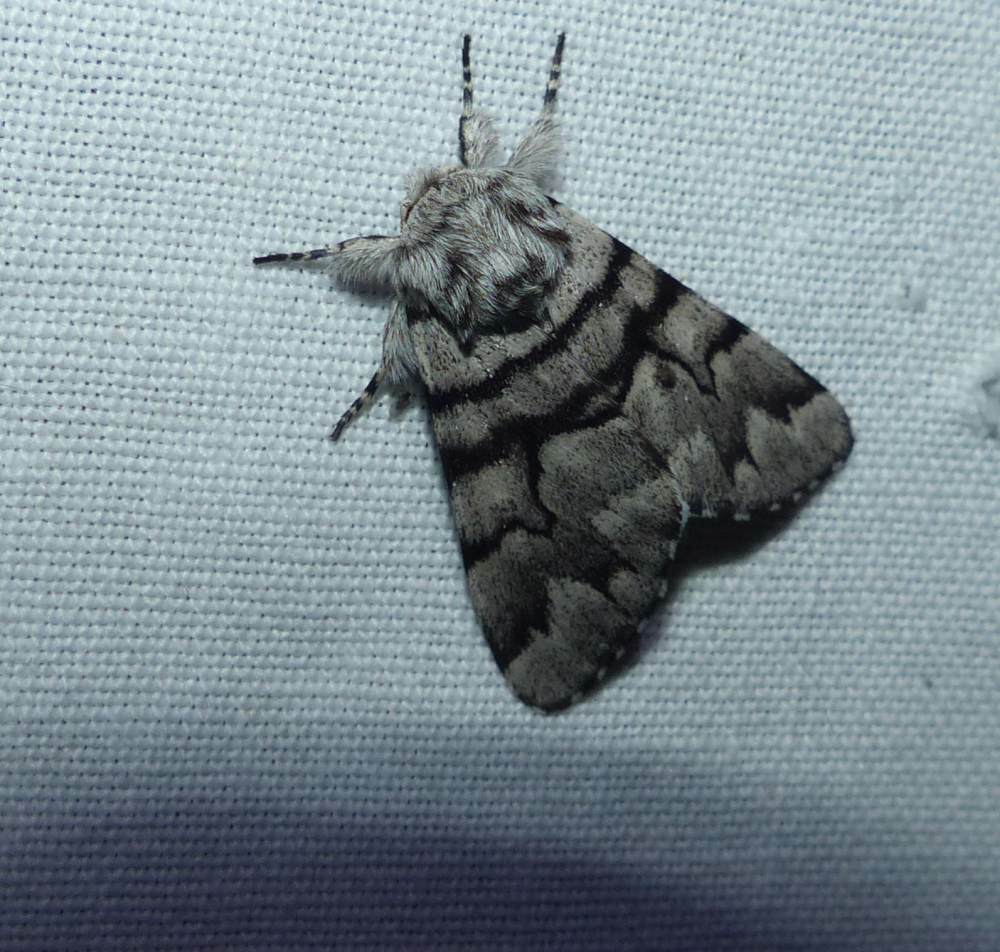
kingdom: Animalia
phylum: Arthropoda
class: Insecta
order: Lepidoptera
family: Noctuidae
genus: Panthea
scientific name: Panthea furcilla
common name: Eastern panthea moth
